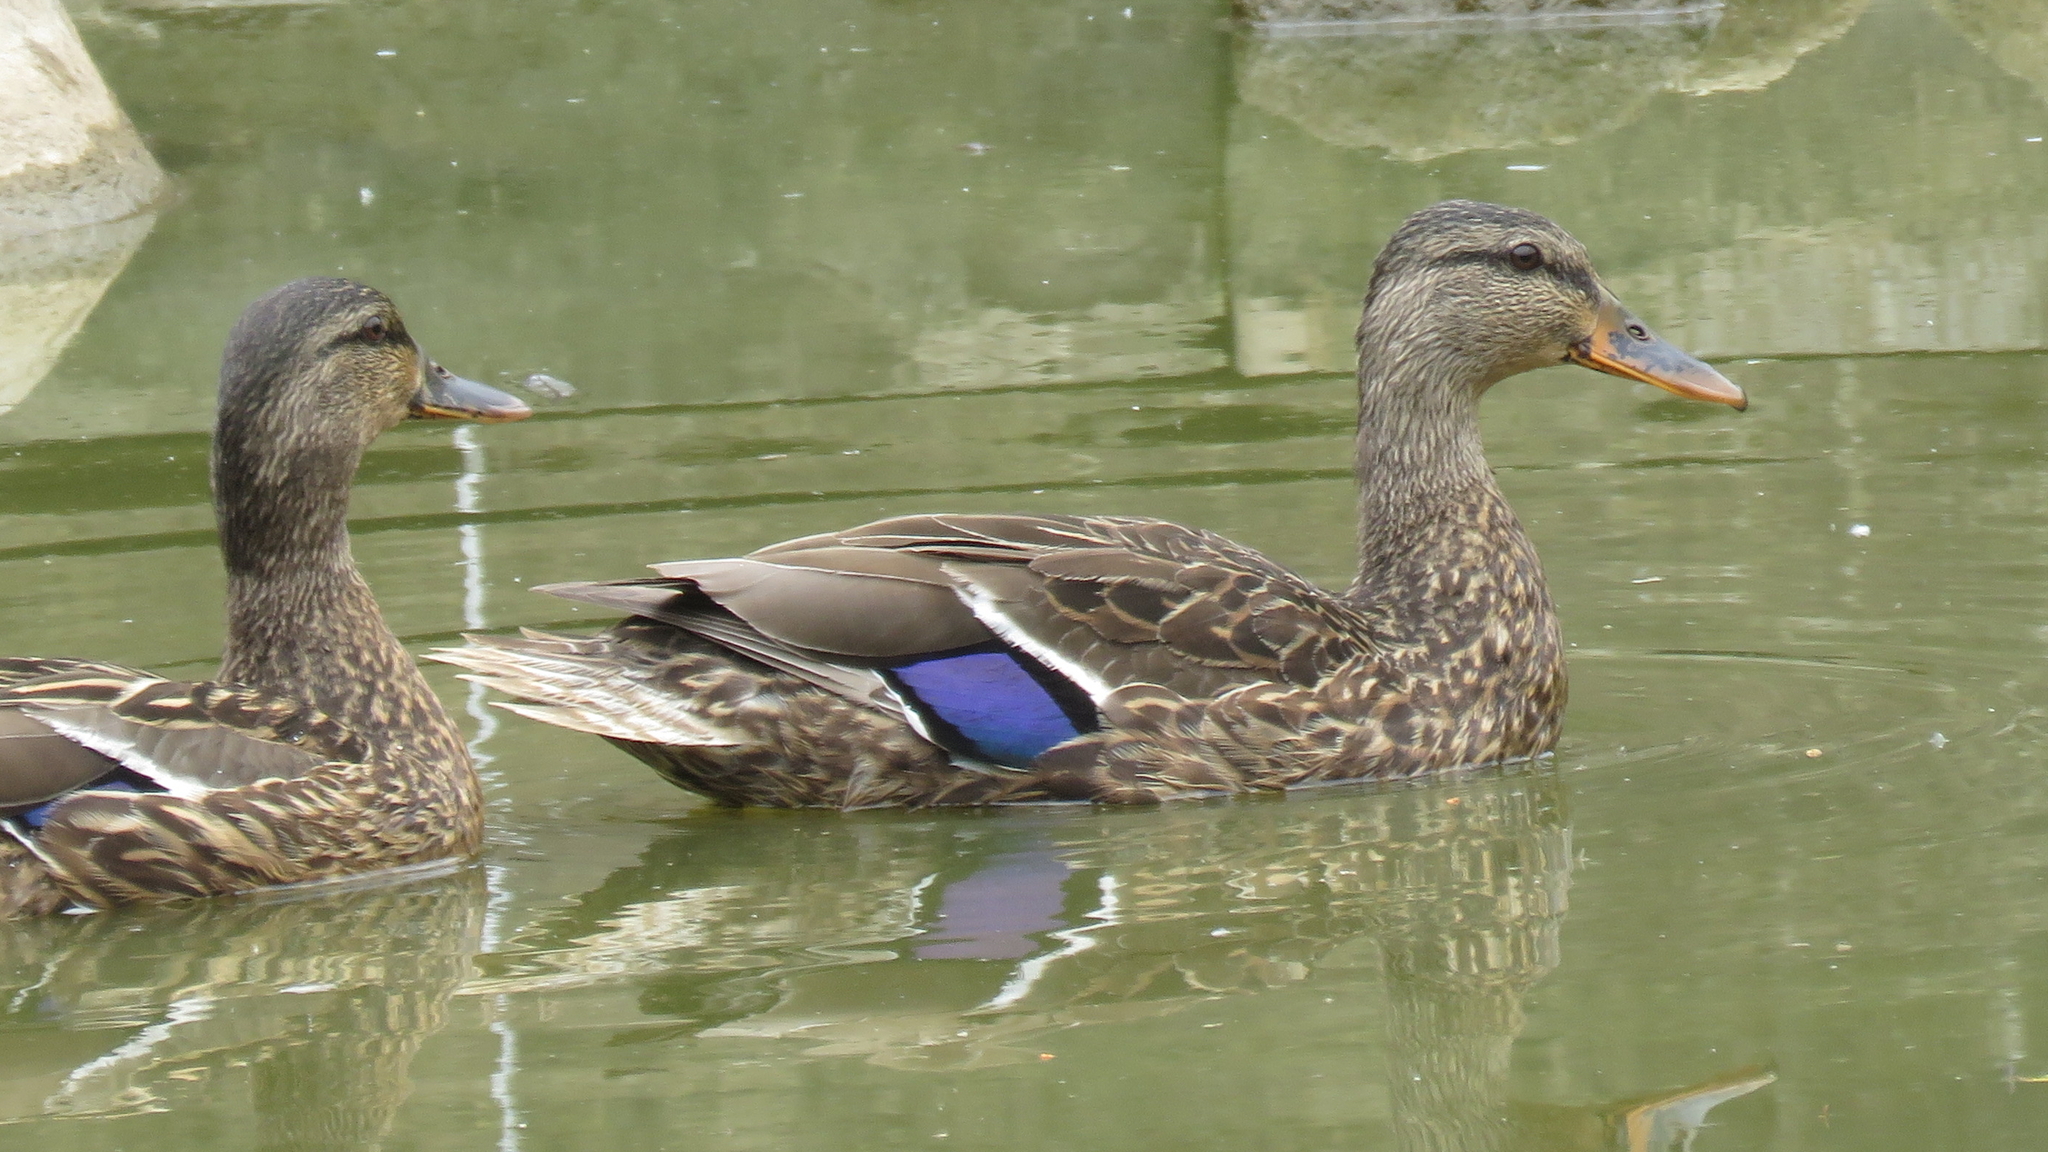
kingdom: Animalia
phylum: Chordata
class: Aves
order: Anseriformes
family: Anatidae
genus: Anas
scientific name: Anas platyrhynchos
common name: Mallard
